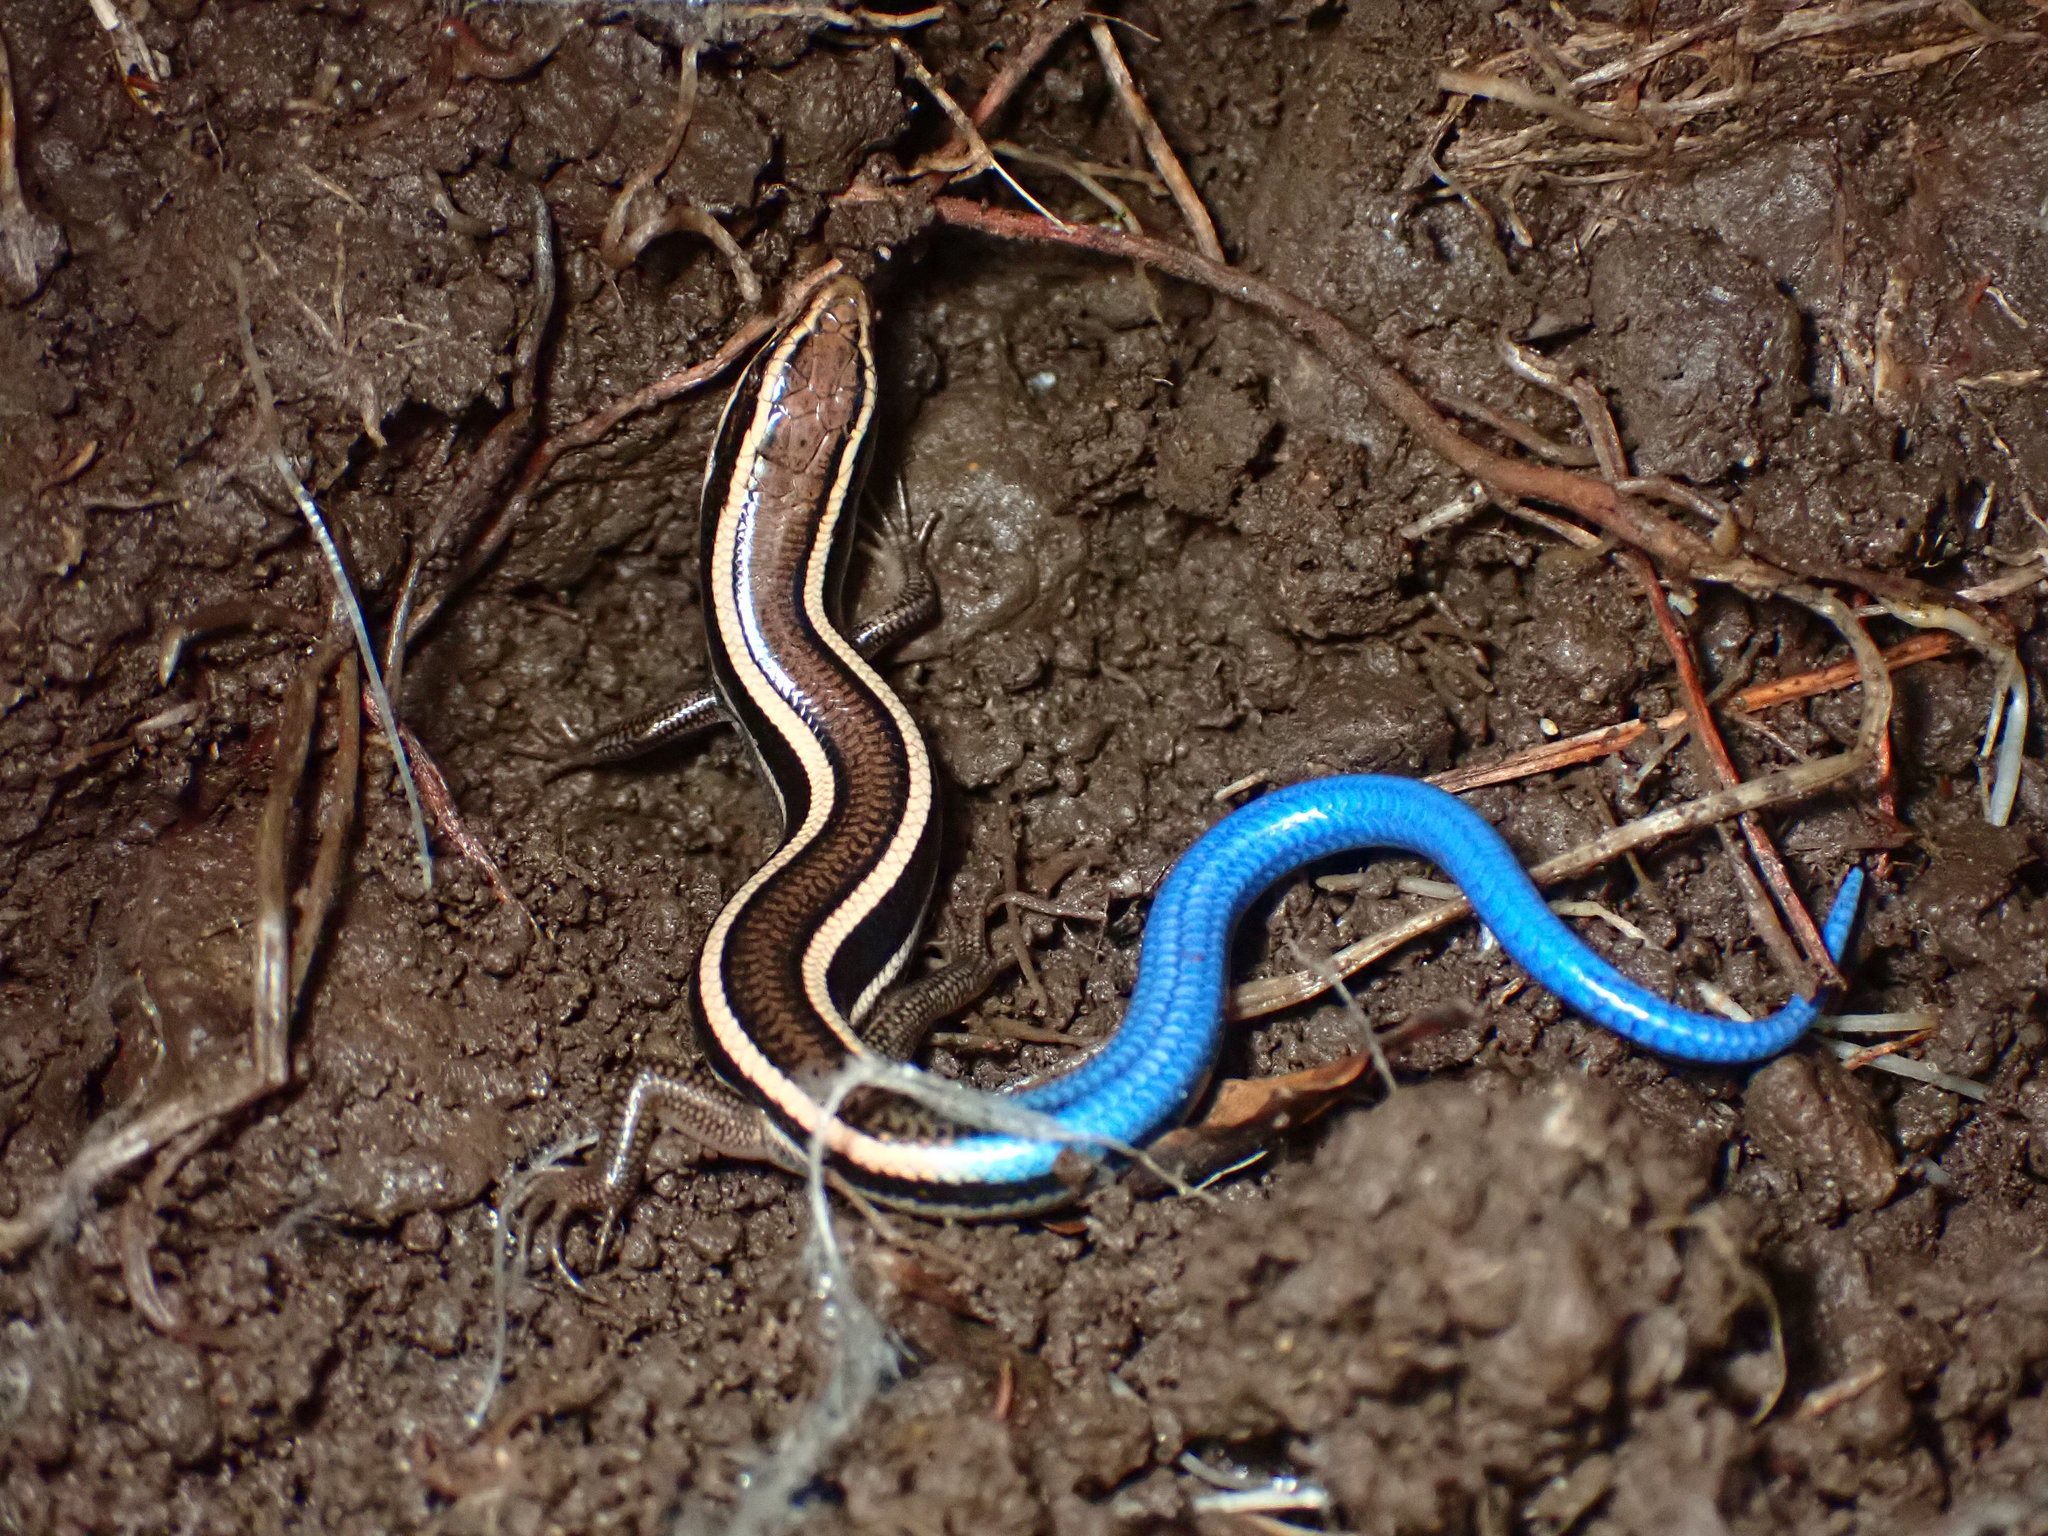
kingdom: Animalia
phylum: Chordata
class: Squamata
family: Scincidae
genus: Plestiodon
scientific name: Plestiodon skiltonianus
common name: Coronado island skink [interparietalis]
